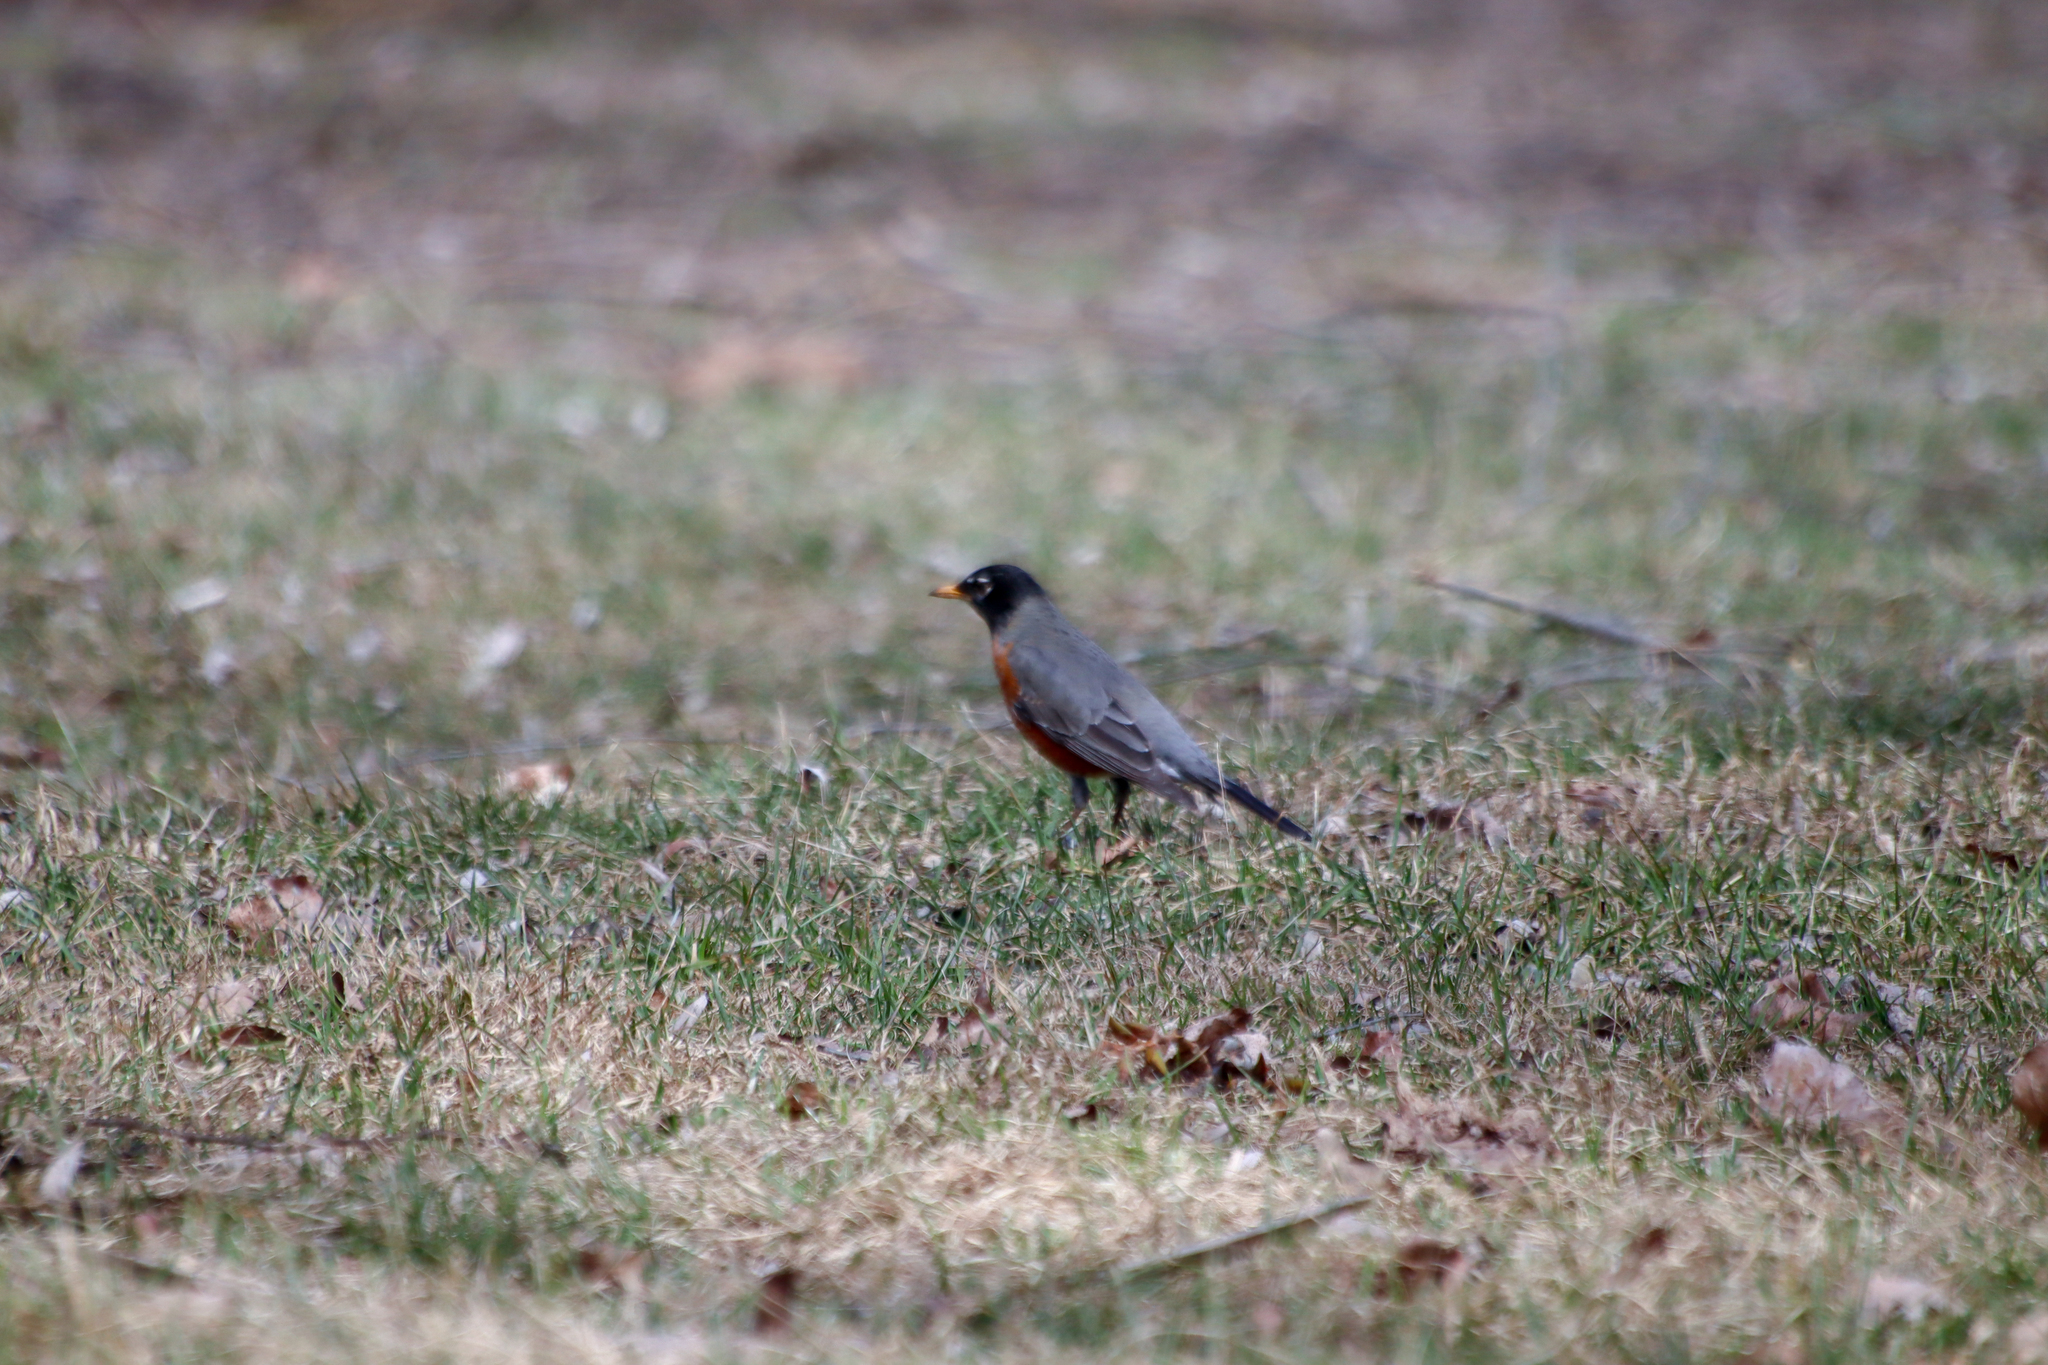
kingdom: Animalia
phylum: Chordata
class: Aves
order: Passeriformes
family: Turdidae
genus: Turdus
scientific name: Turdus migratorius
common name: American robin
